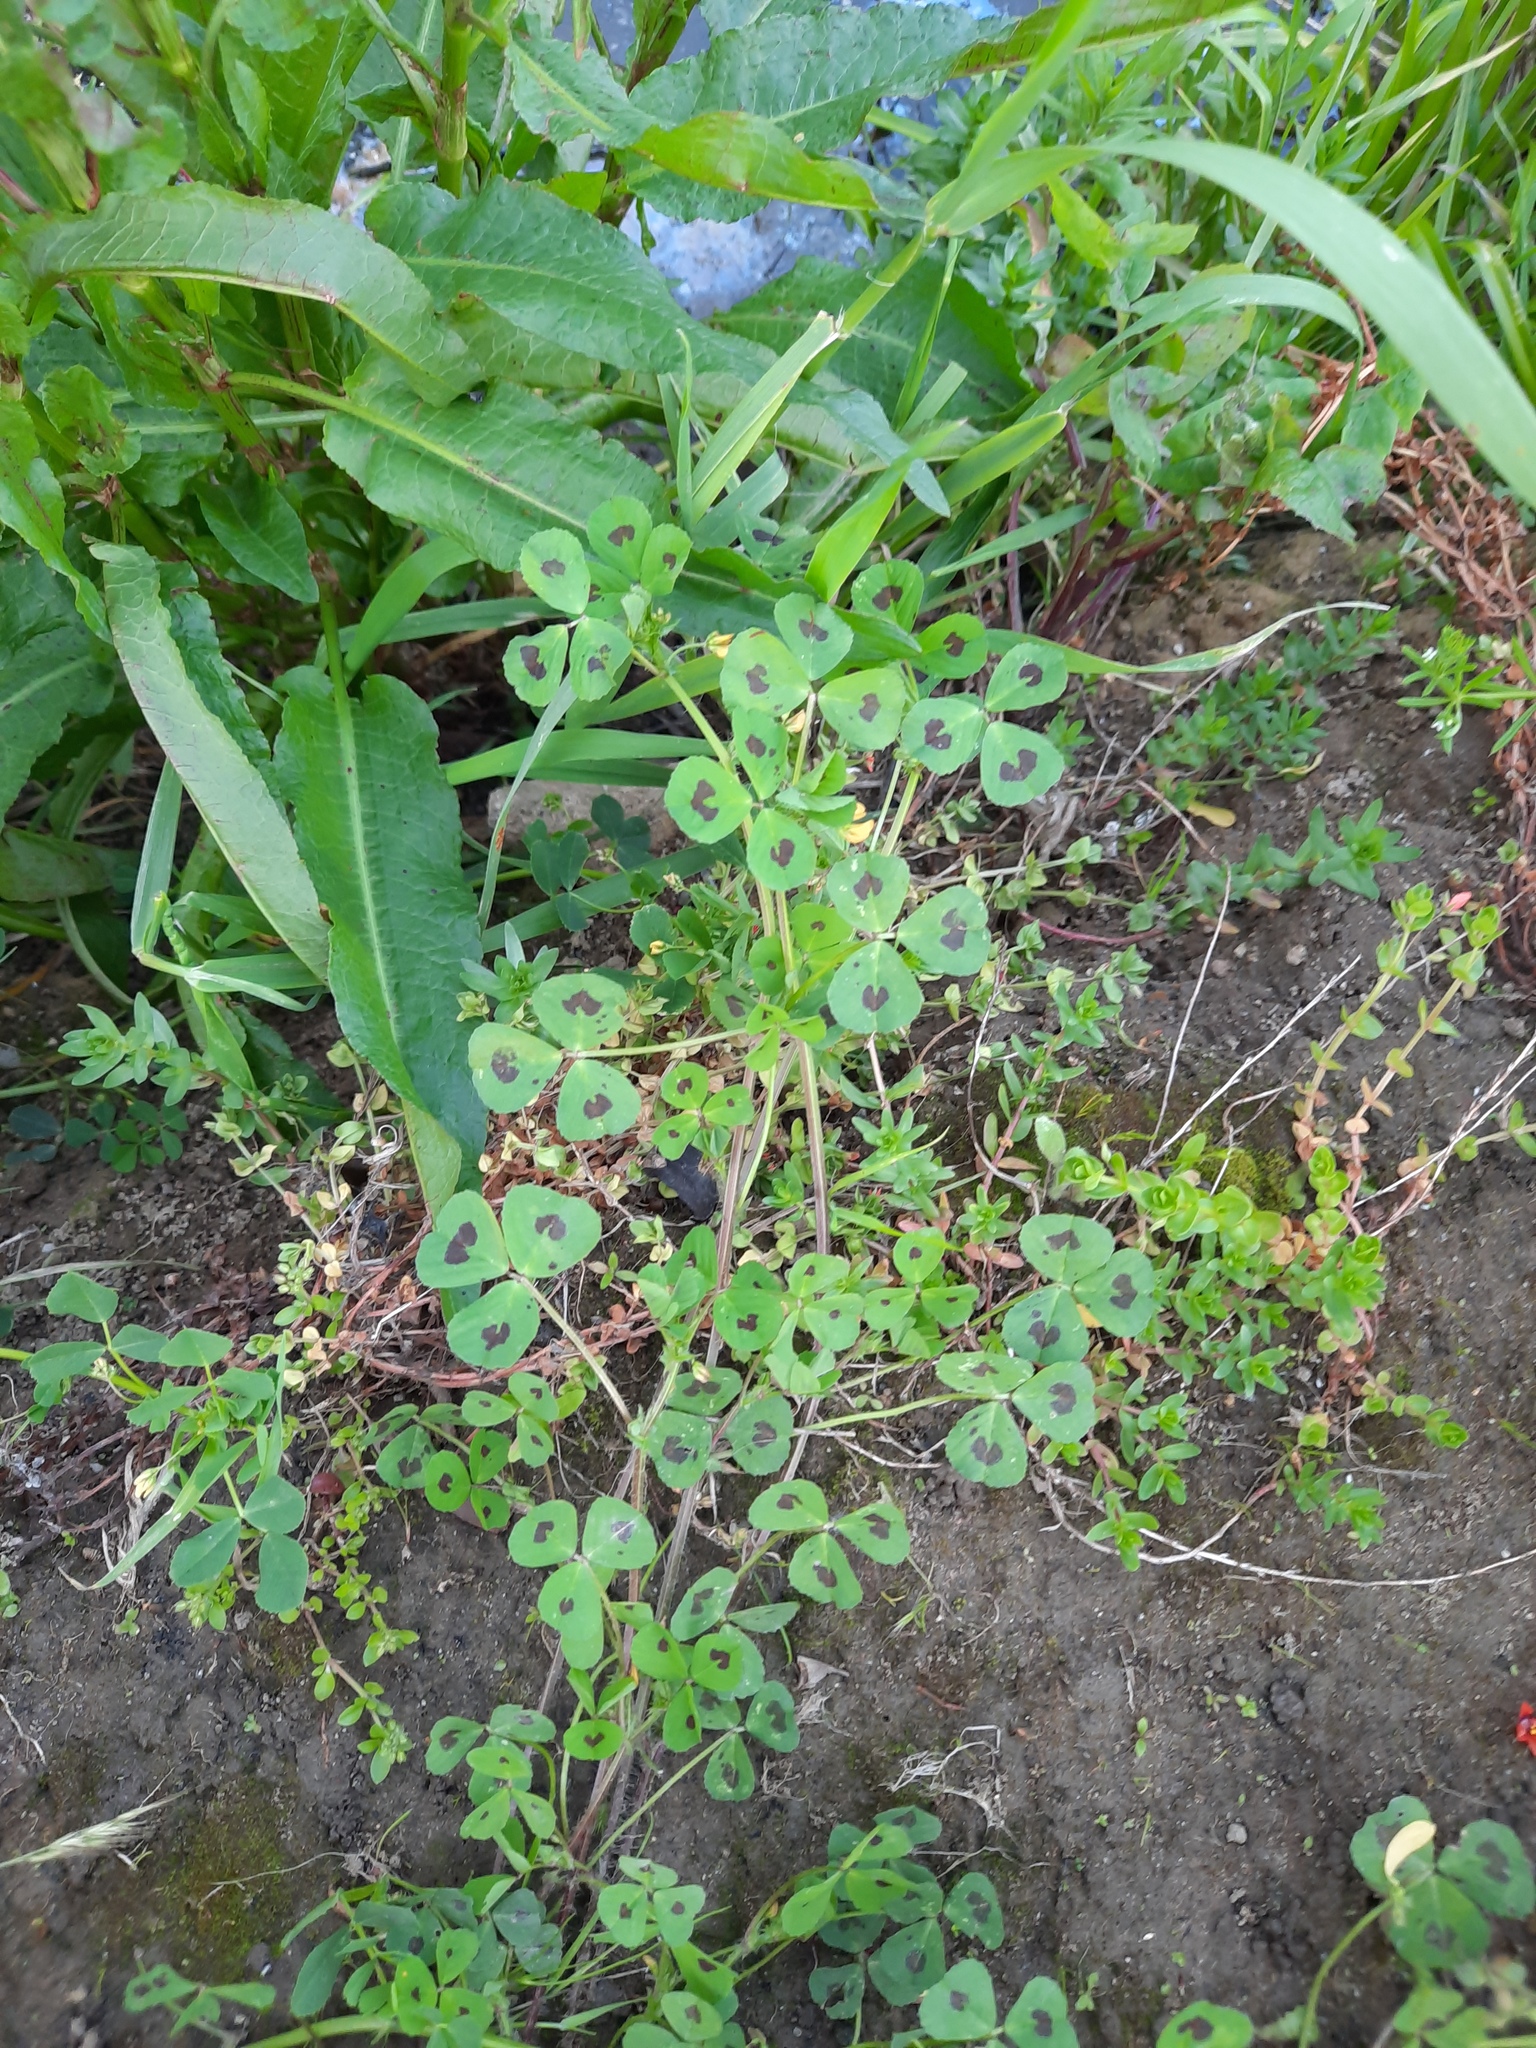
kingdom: Plantae
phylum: Tracheophyta
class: Magnoliopsida
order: Fabales
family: Fabaceae
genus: Medicago
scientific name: Medicago arabica
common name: Spotted medick
